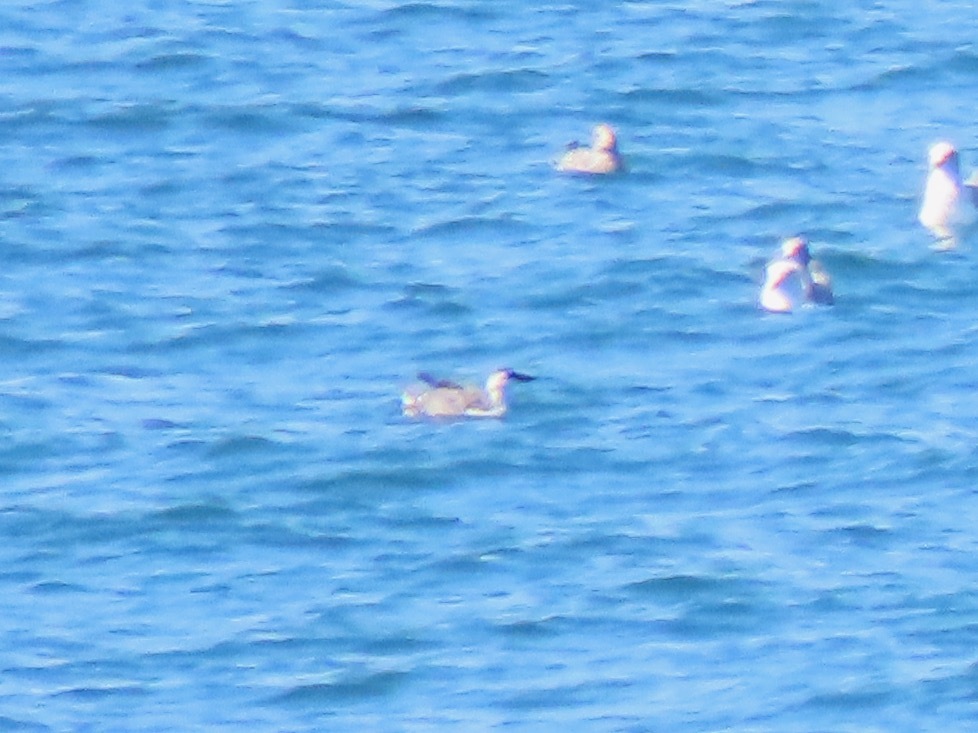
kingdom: Animalia
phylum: Chordata
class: Aves
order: Charadriiformes
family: Alcidae
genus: Cepphus
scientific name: Cepphus columba
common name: Pigeon guillemot
